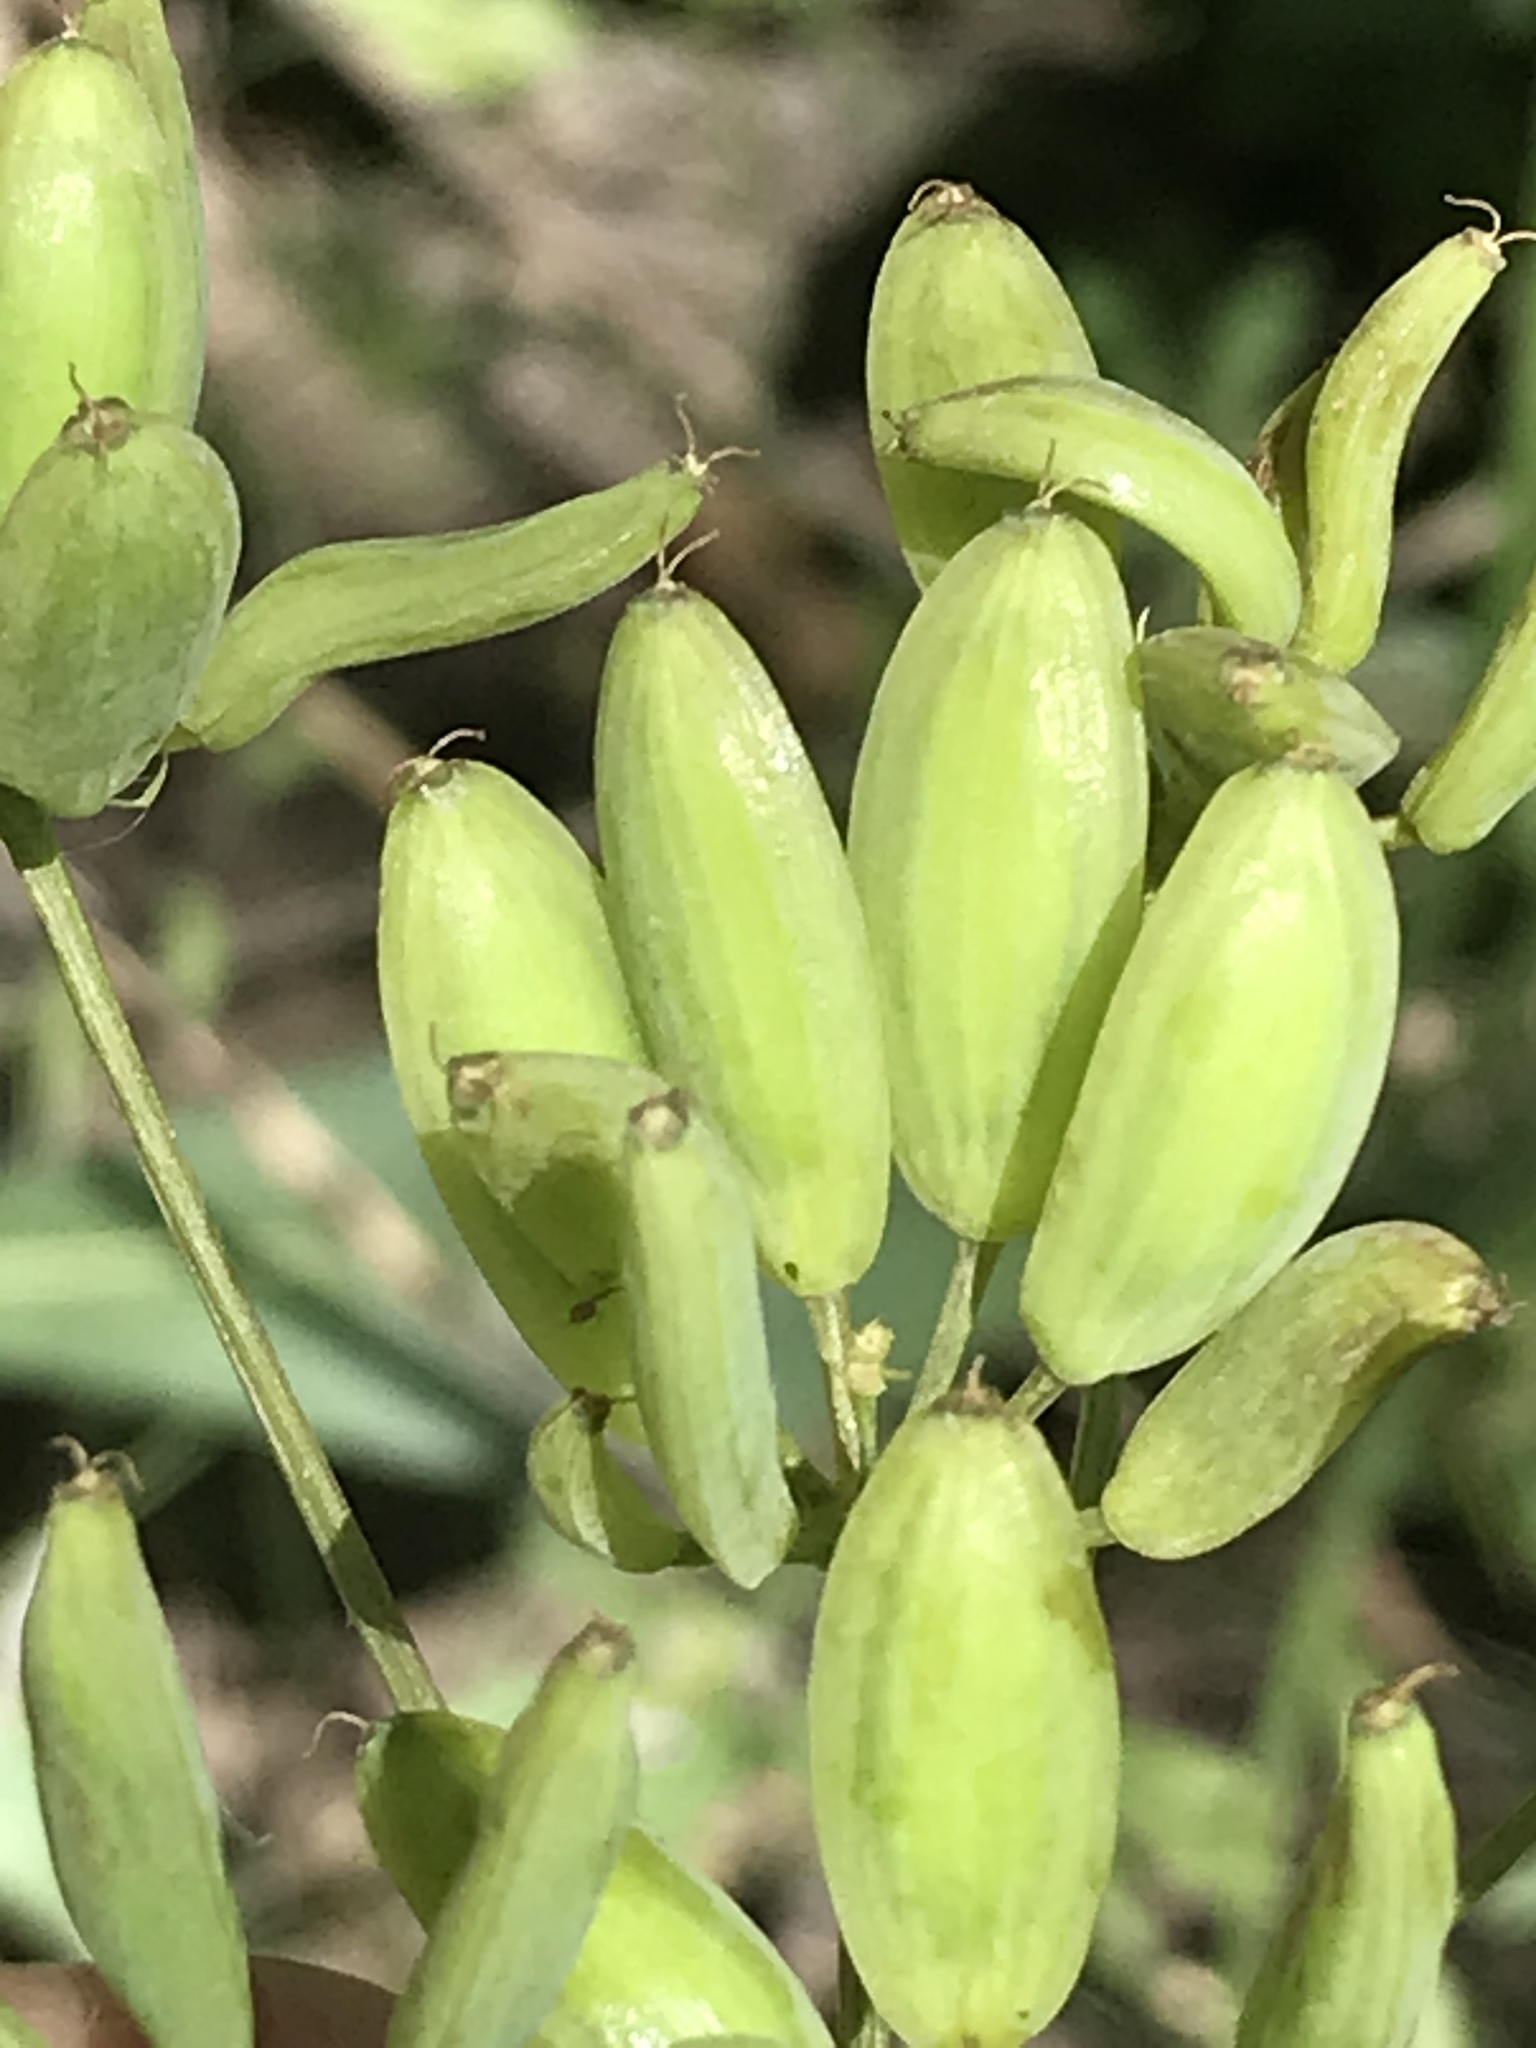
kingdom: Plantae
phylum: Tracheophyta
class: Magnoliopsida
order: Apiales
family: Apiaceae
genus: Lomatium
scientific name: Lomatium multifidum
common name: Carrot-leaved biscuitroot
